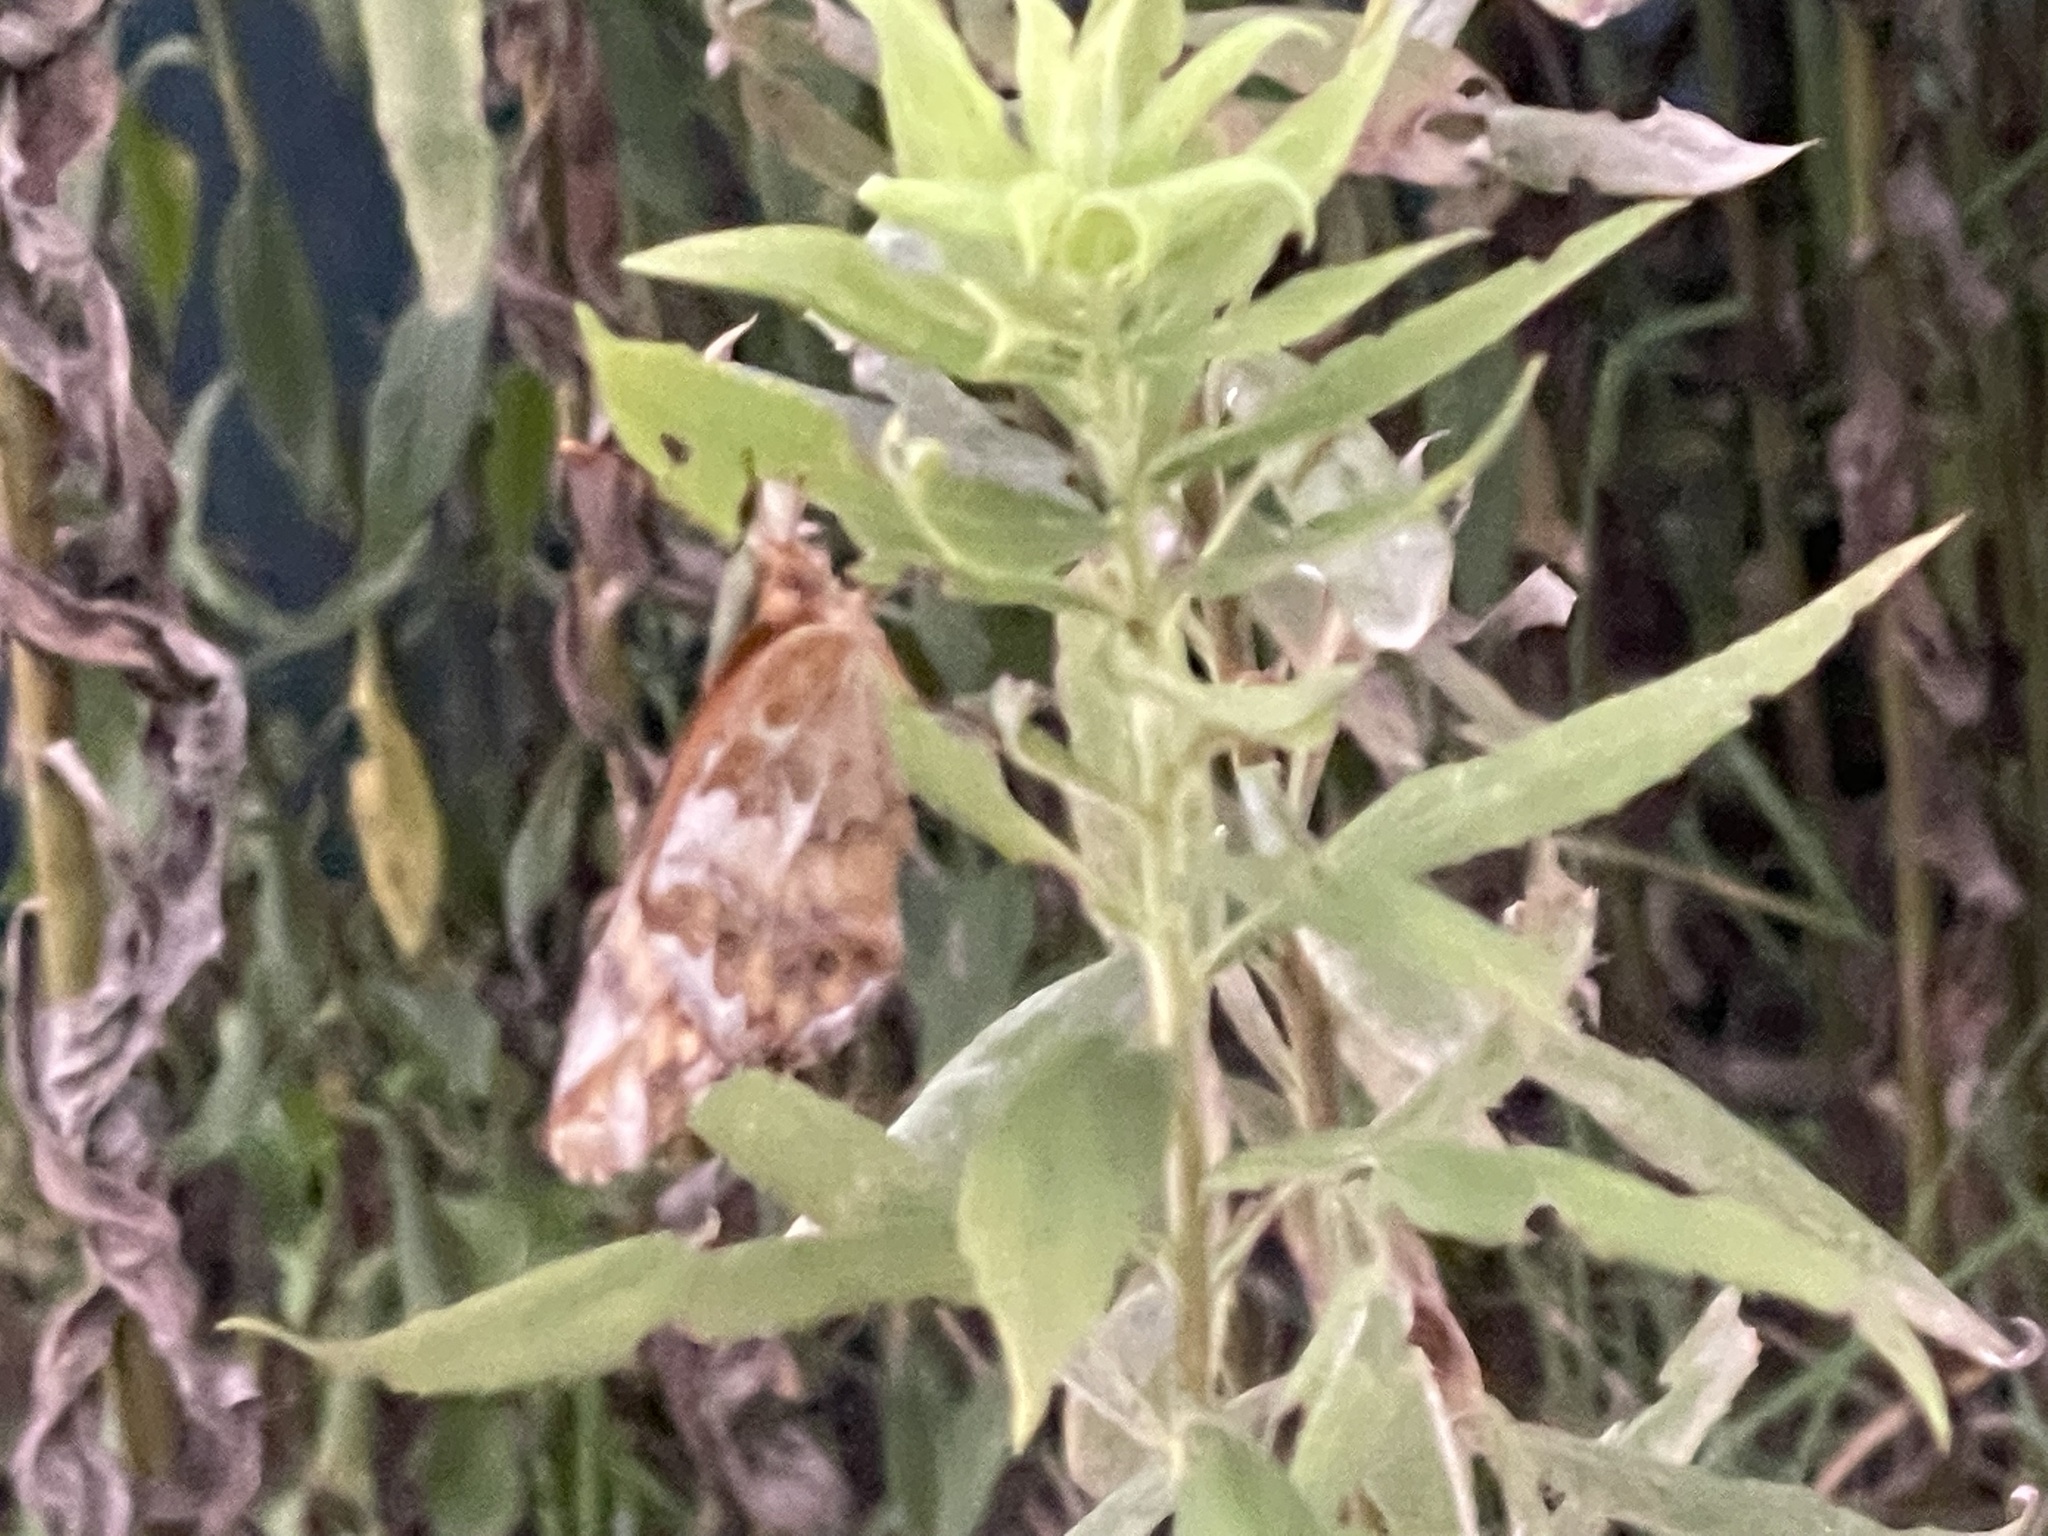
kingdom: Animalia
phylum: Arthropoda
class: Insecta
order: Lepidoptera
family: Nymphalidae
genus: Euptoieta
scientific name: Euptoieta claudia
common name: Variegated fritillary
